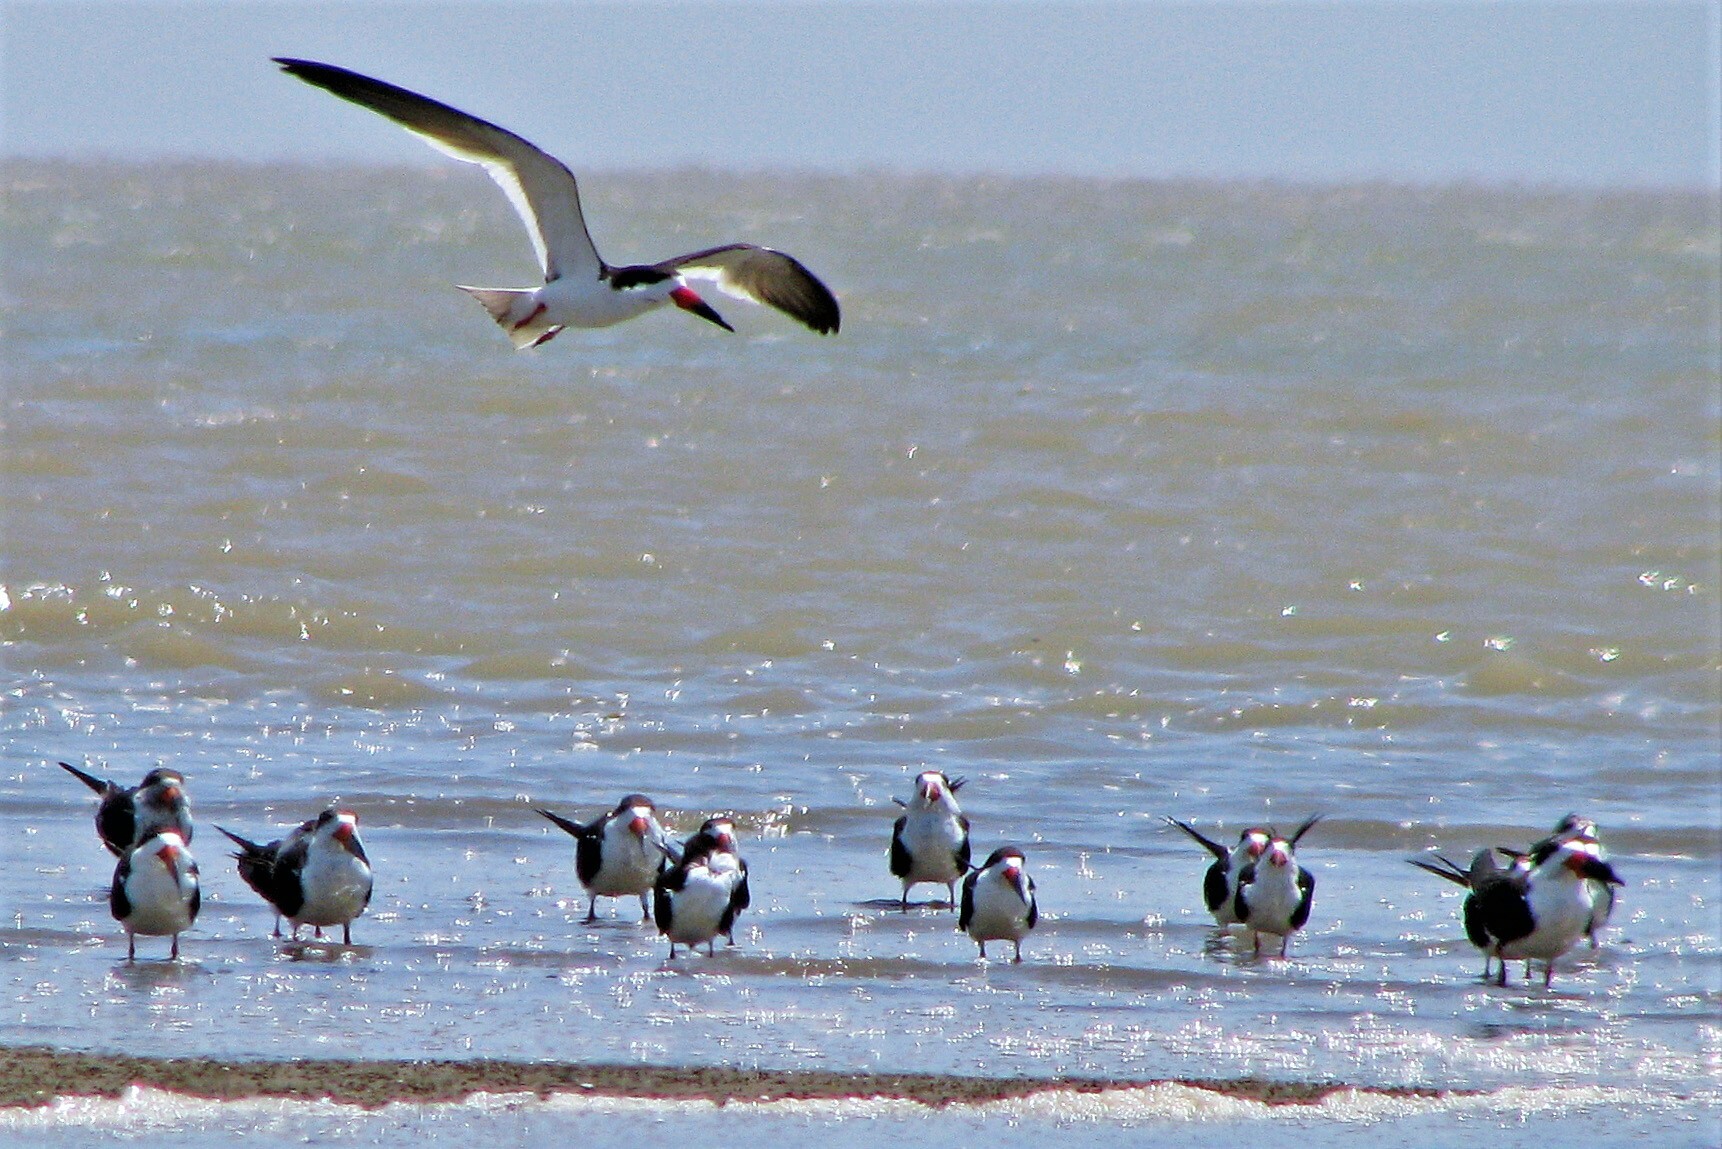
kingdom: Animalia
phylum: Chordata
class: Aves
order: Charadriiformes
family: Laridae
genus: Rynchops
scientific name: Rynchops niger
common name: Black skimmer
